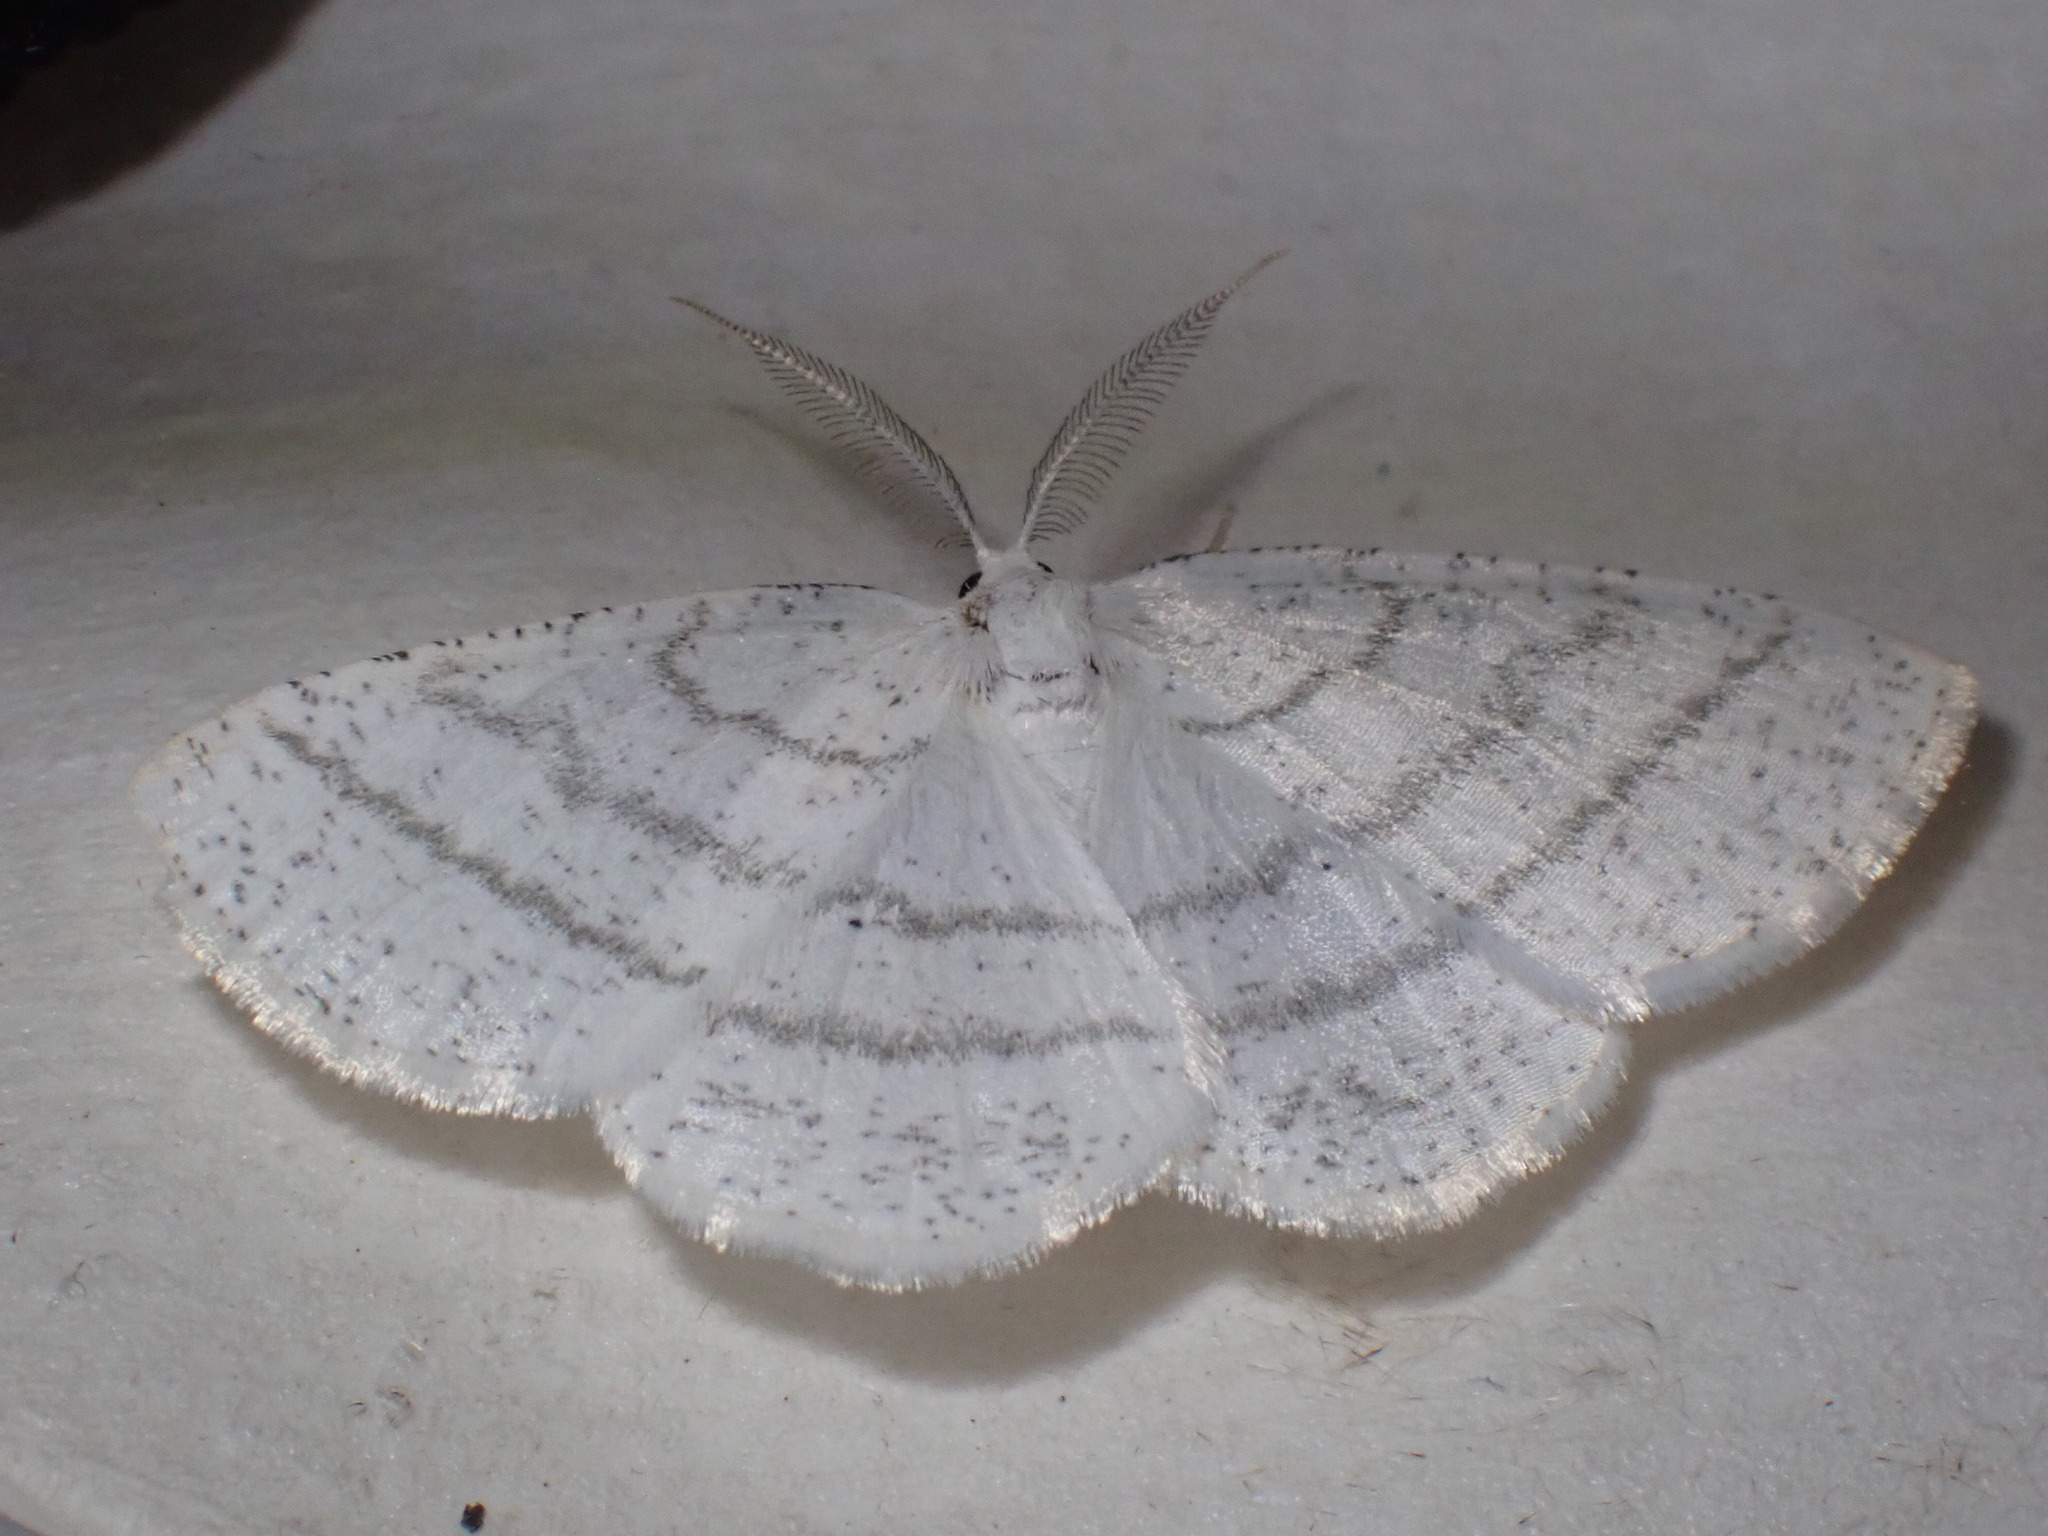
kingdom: Animalia
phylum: Arthropoda
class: Insecta
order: Lepidoptera
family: Geometridae
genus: Cabera
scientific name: Cabera pusaria
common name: Common white wave
